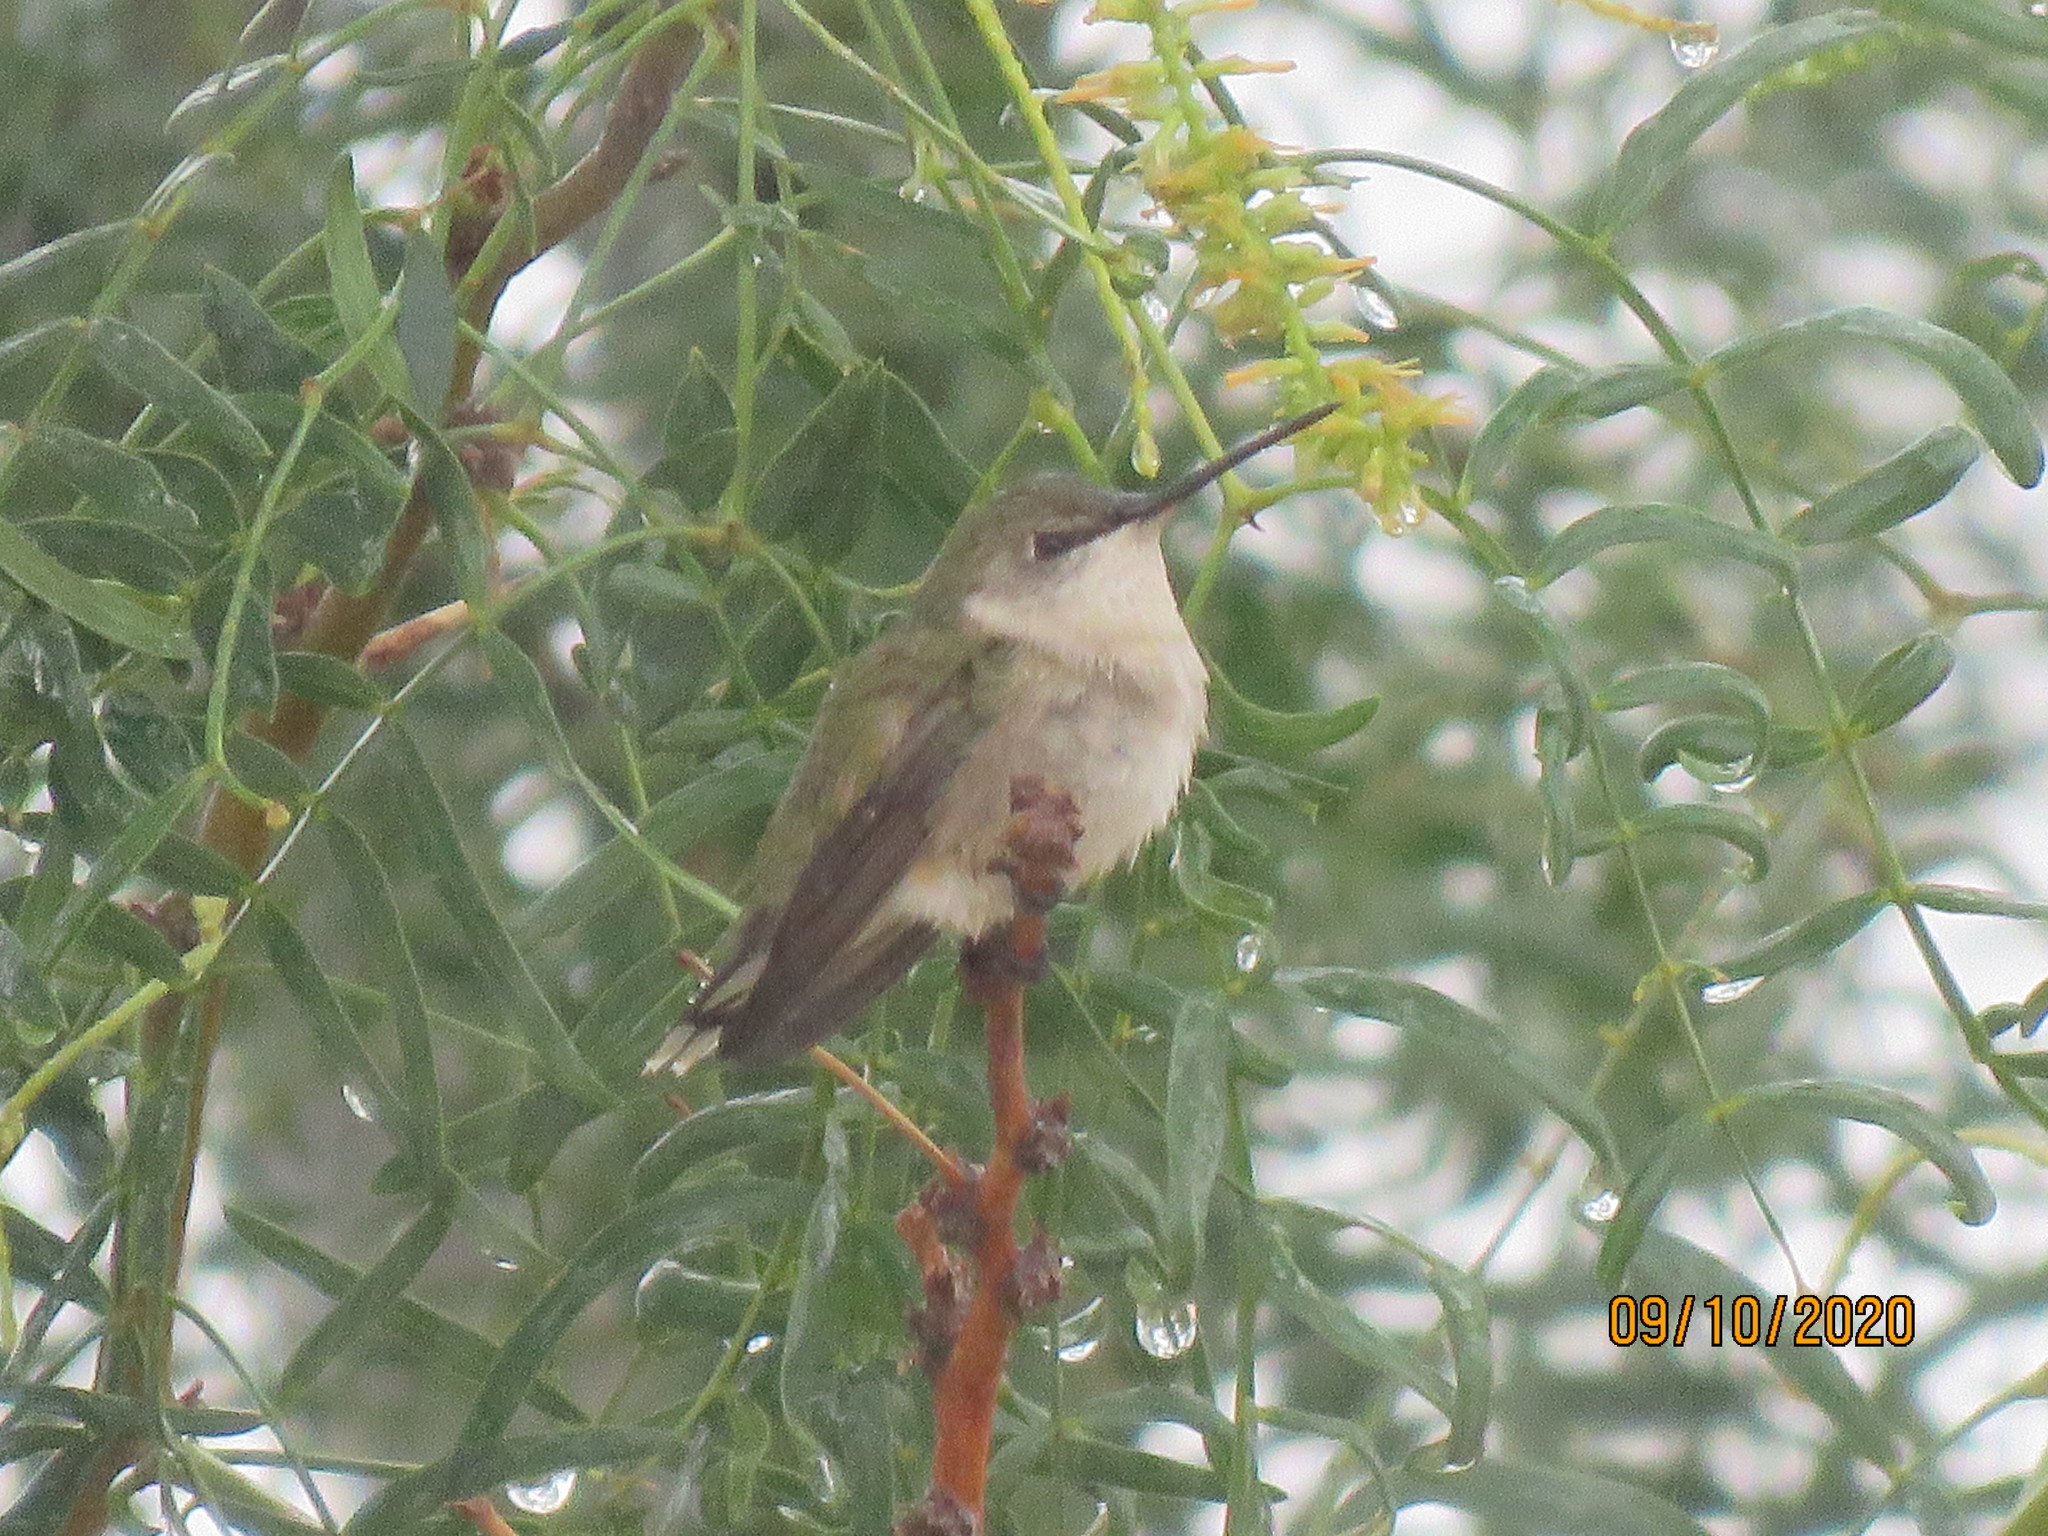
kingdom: Animalia
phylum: Chordata
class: Aves
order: Apodiformes
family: Trochilidae
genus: Archilochus
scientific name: Archilochus alexandri
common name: Black-chinned hummingbird
